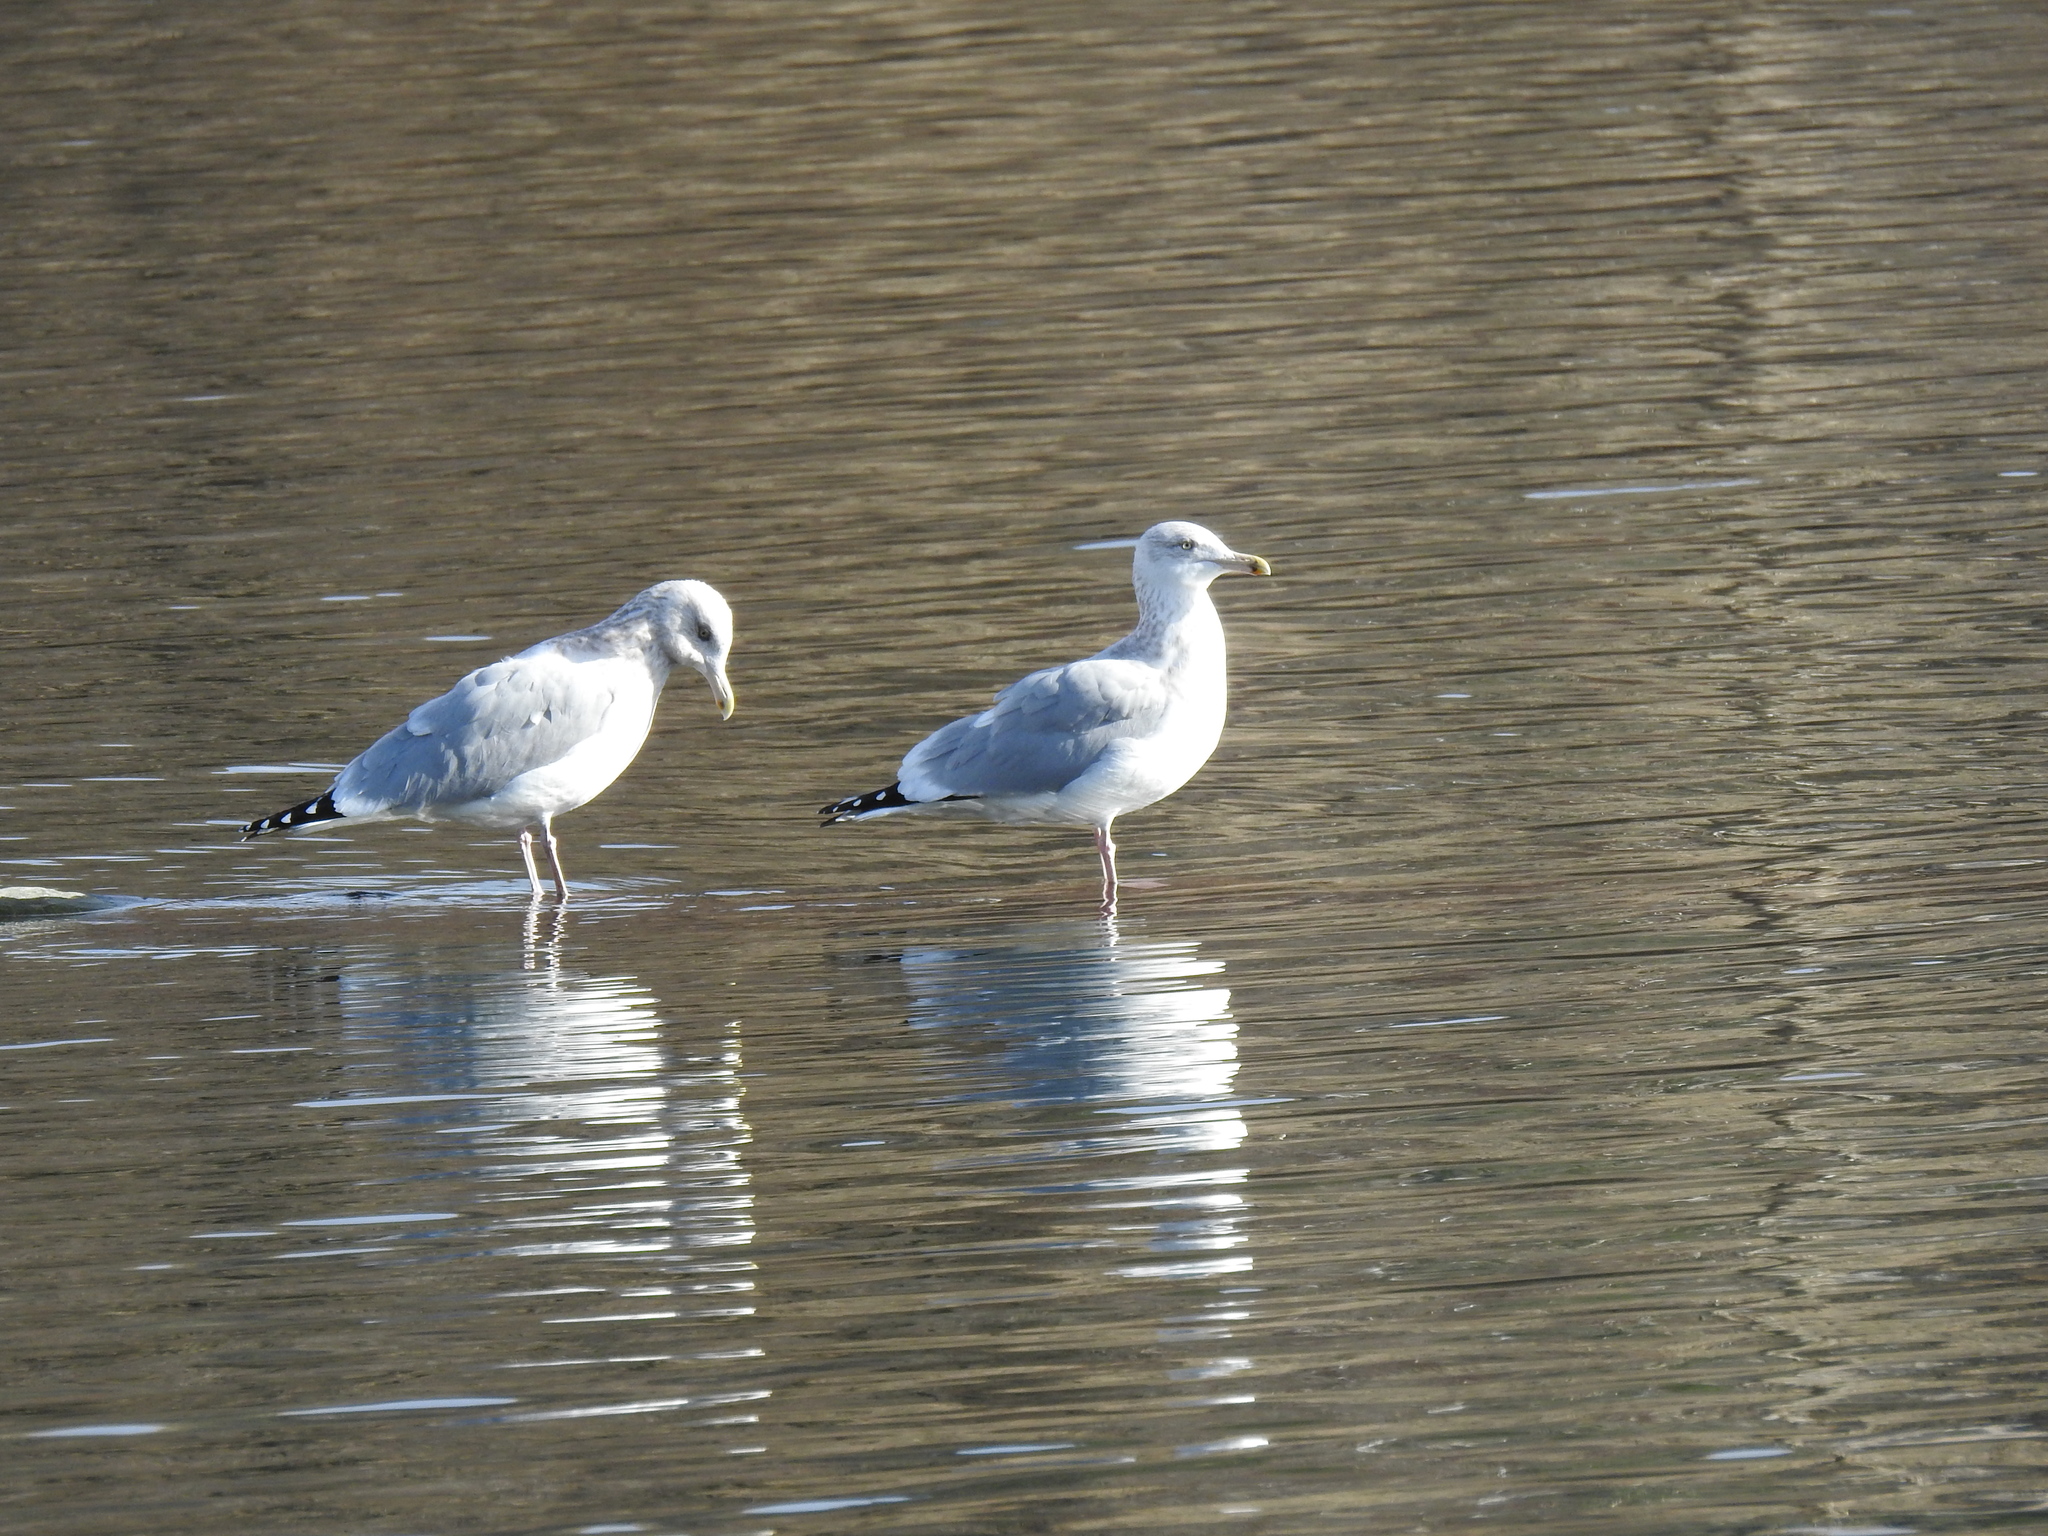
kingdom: Animalia
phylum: Chordata
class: Aves
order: Charadriiformes
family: Laridae
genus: Larus
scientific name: Larus argentatus
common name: Herring gull
